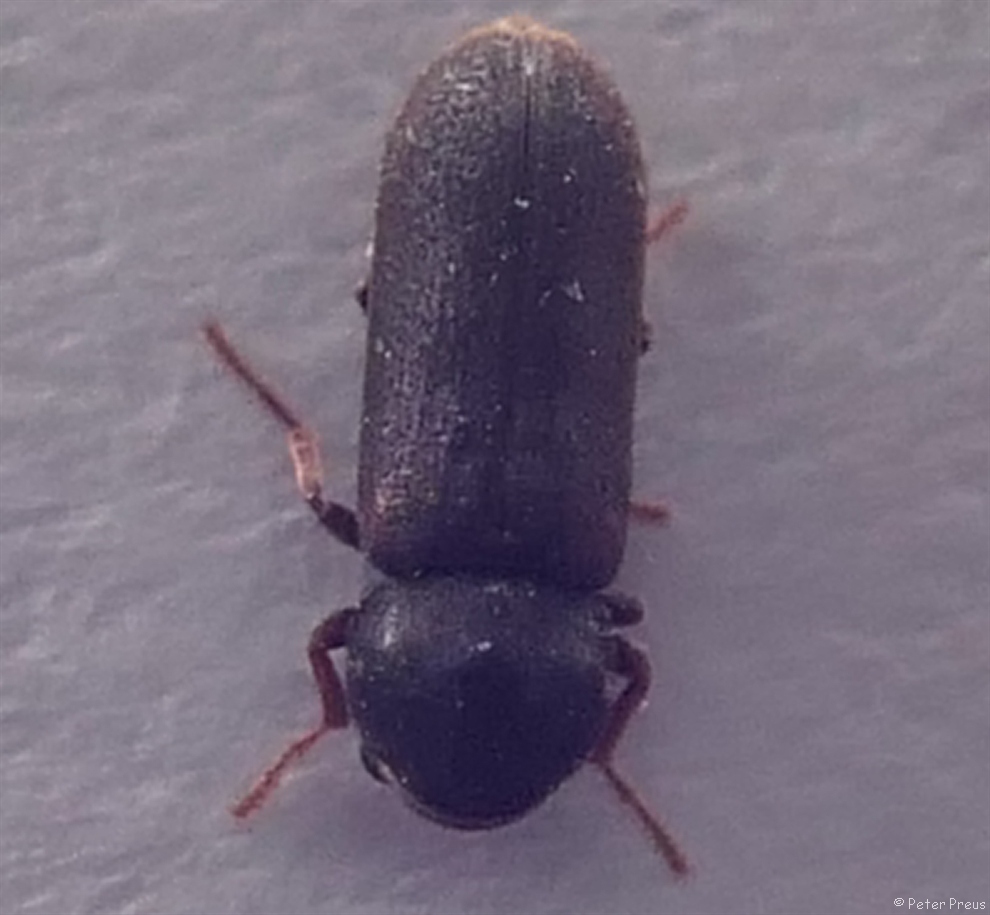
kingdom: Animalia
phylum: Arthropoda
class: Insecta
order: Coleoptera
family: Anobiidae
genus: Ptilinus
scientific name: Ptilinus pectinicornis
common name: Fan-bearing wood-borer
